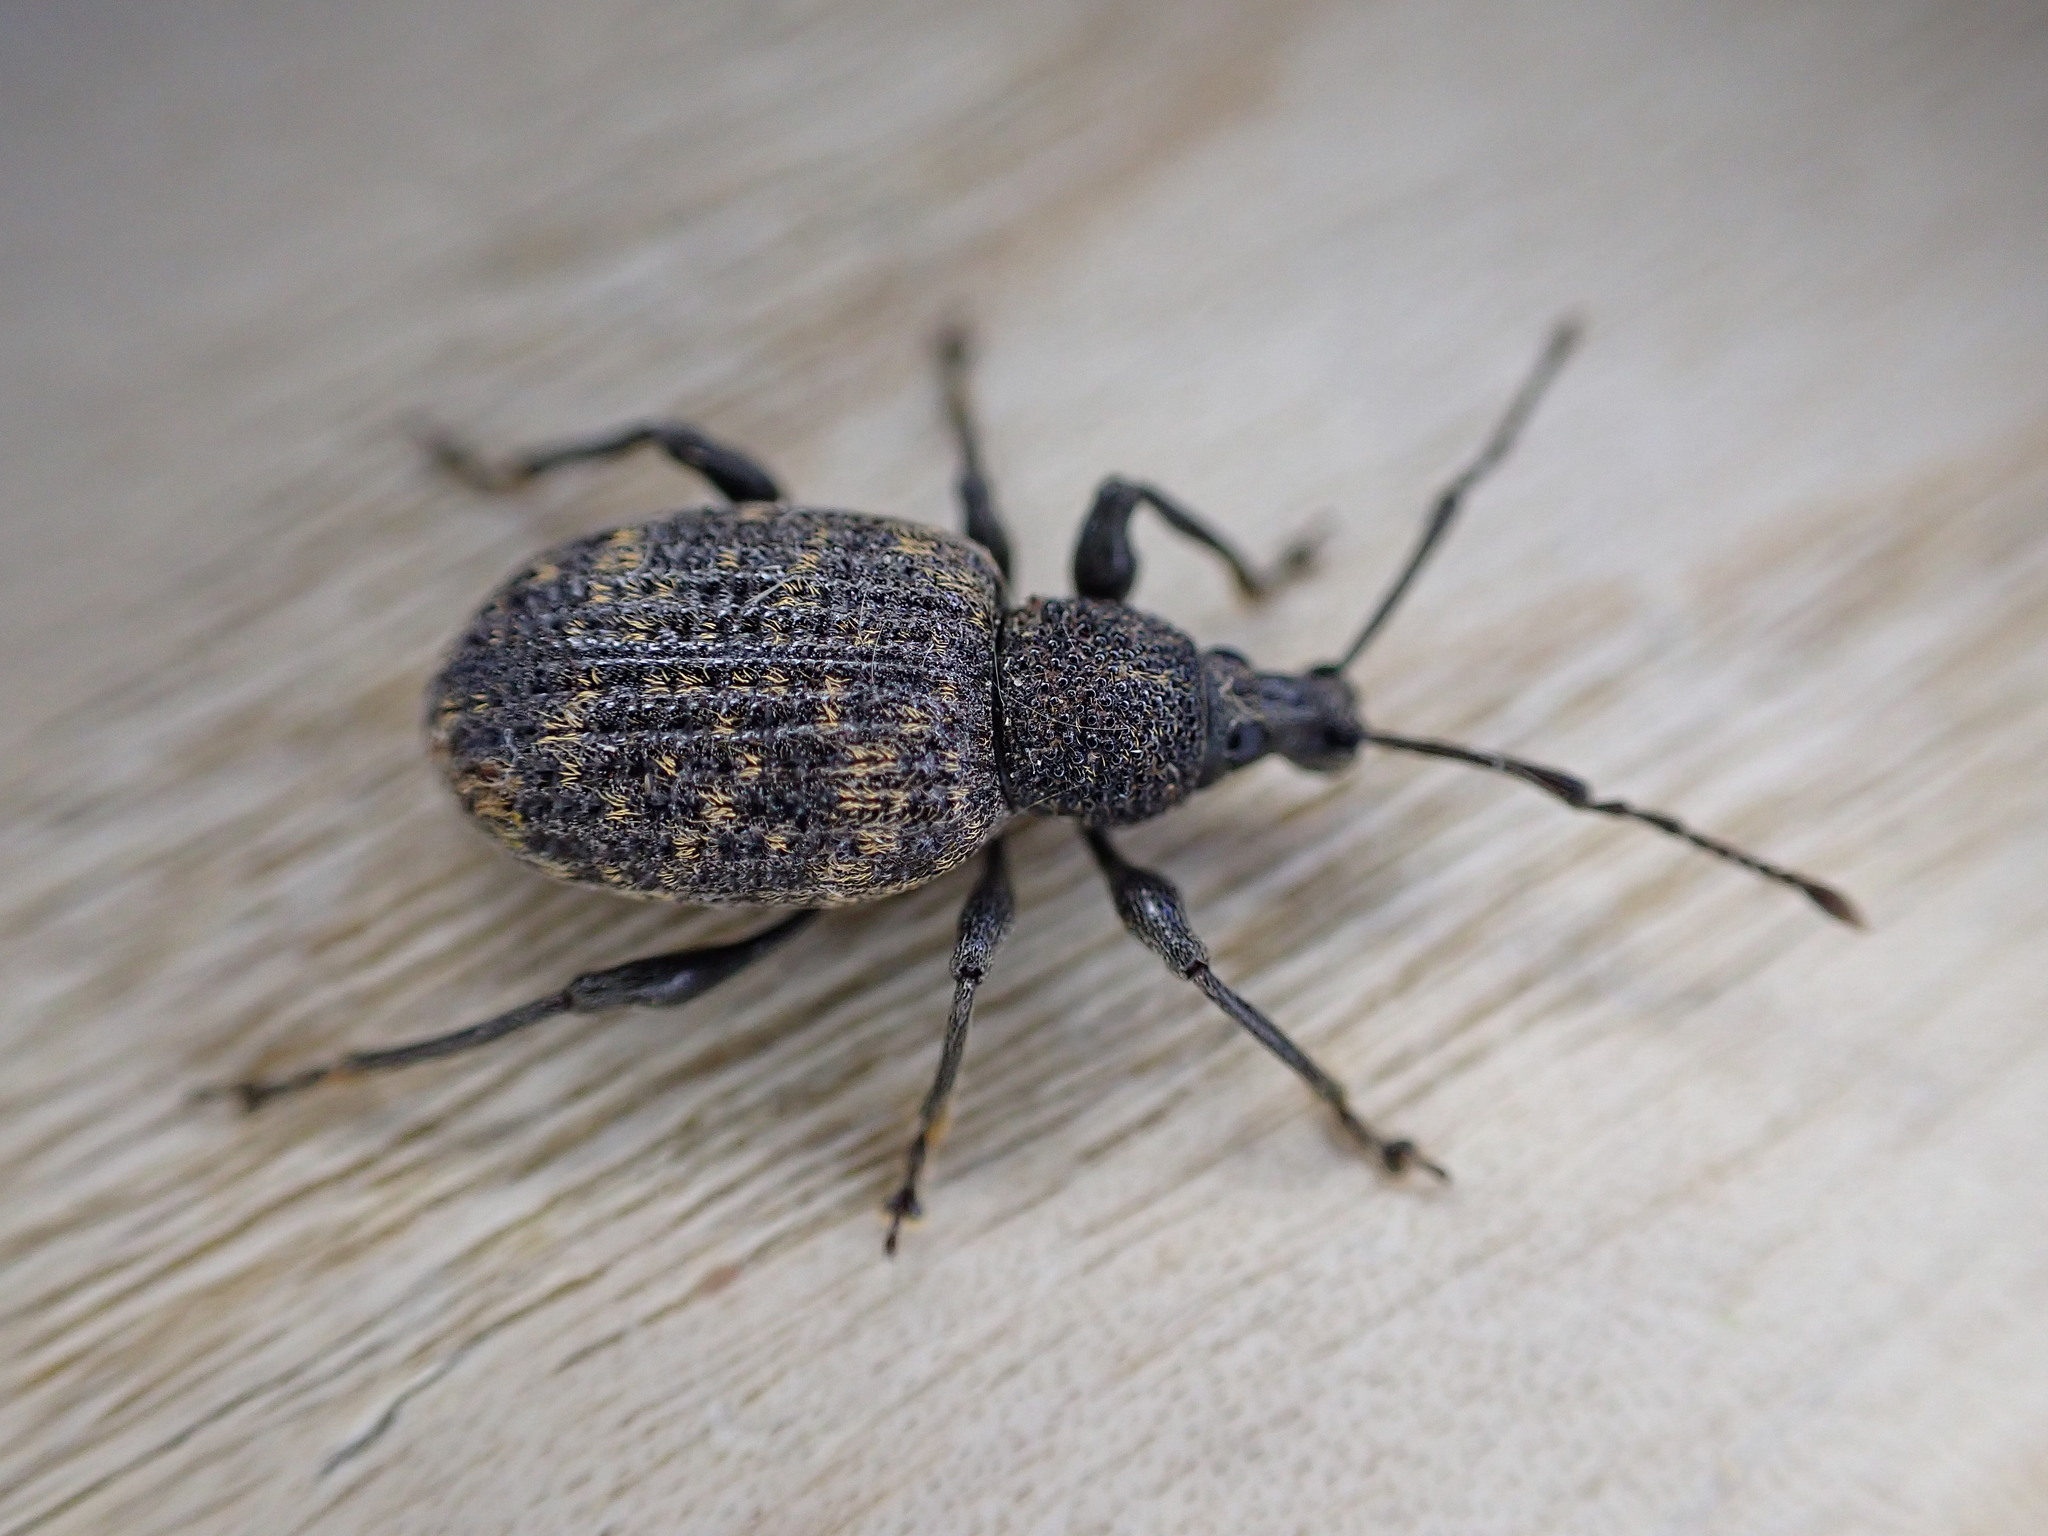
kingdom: Animalia
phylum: Arthropoda
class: Insecta
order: Coleoptera
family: Curculionidae
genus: Otiorhynchus
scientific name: Otiorhynchus sulcatus
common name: Black vine weevil
